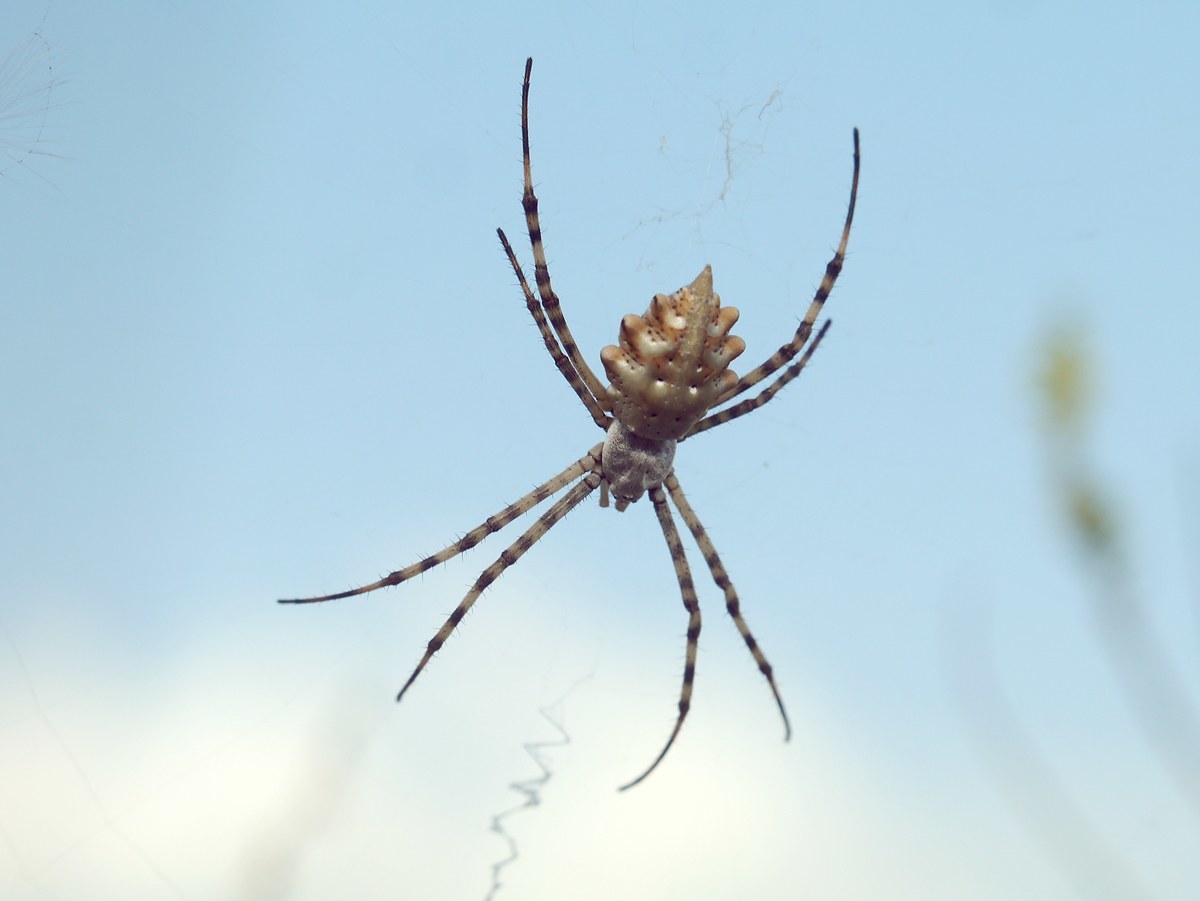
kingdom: Animalia
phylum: Arthropoda
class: Arachnida
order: Araneae
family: Araneidae
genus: Argiope
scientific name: Argiope lobata
